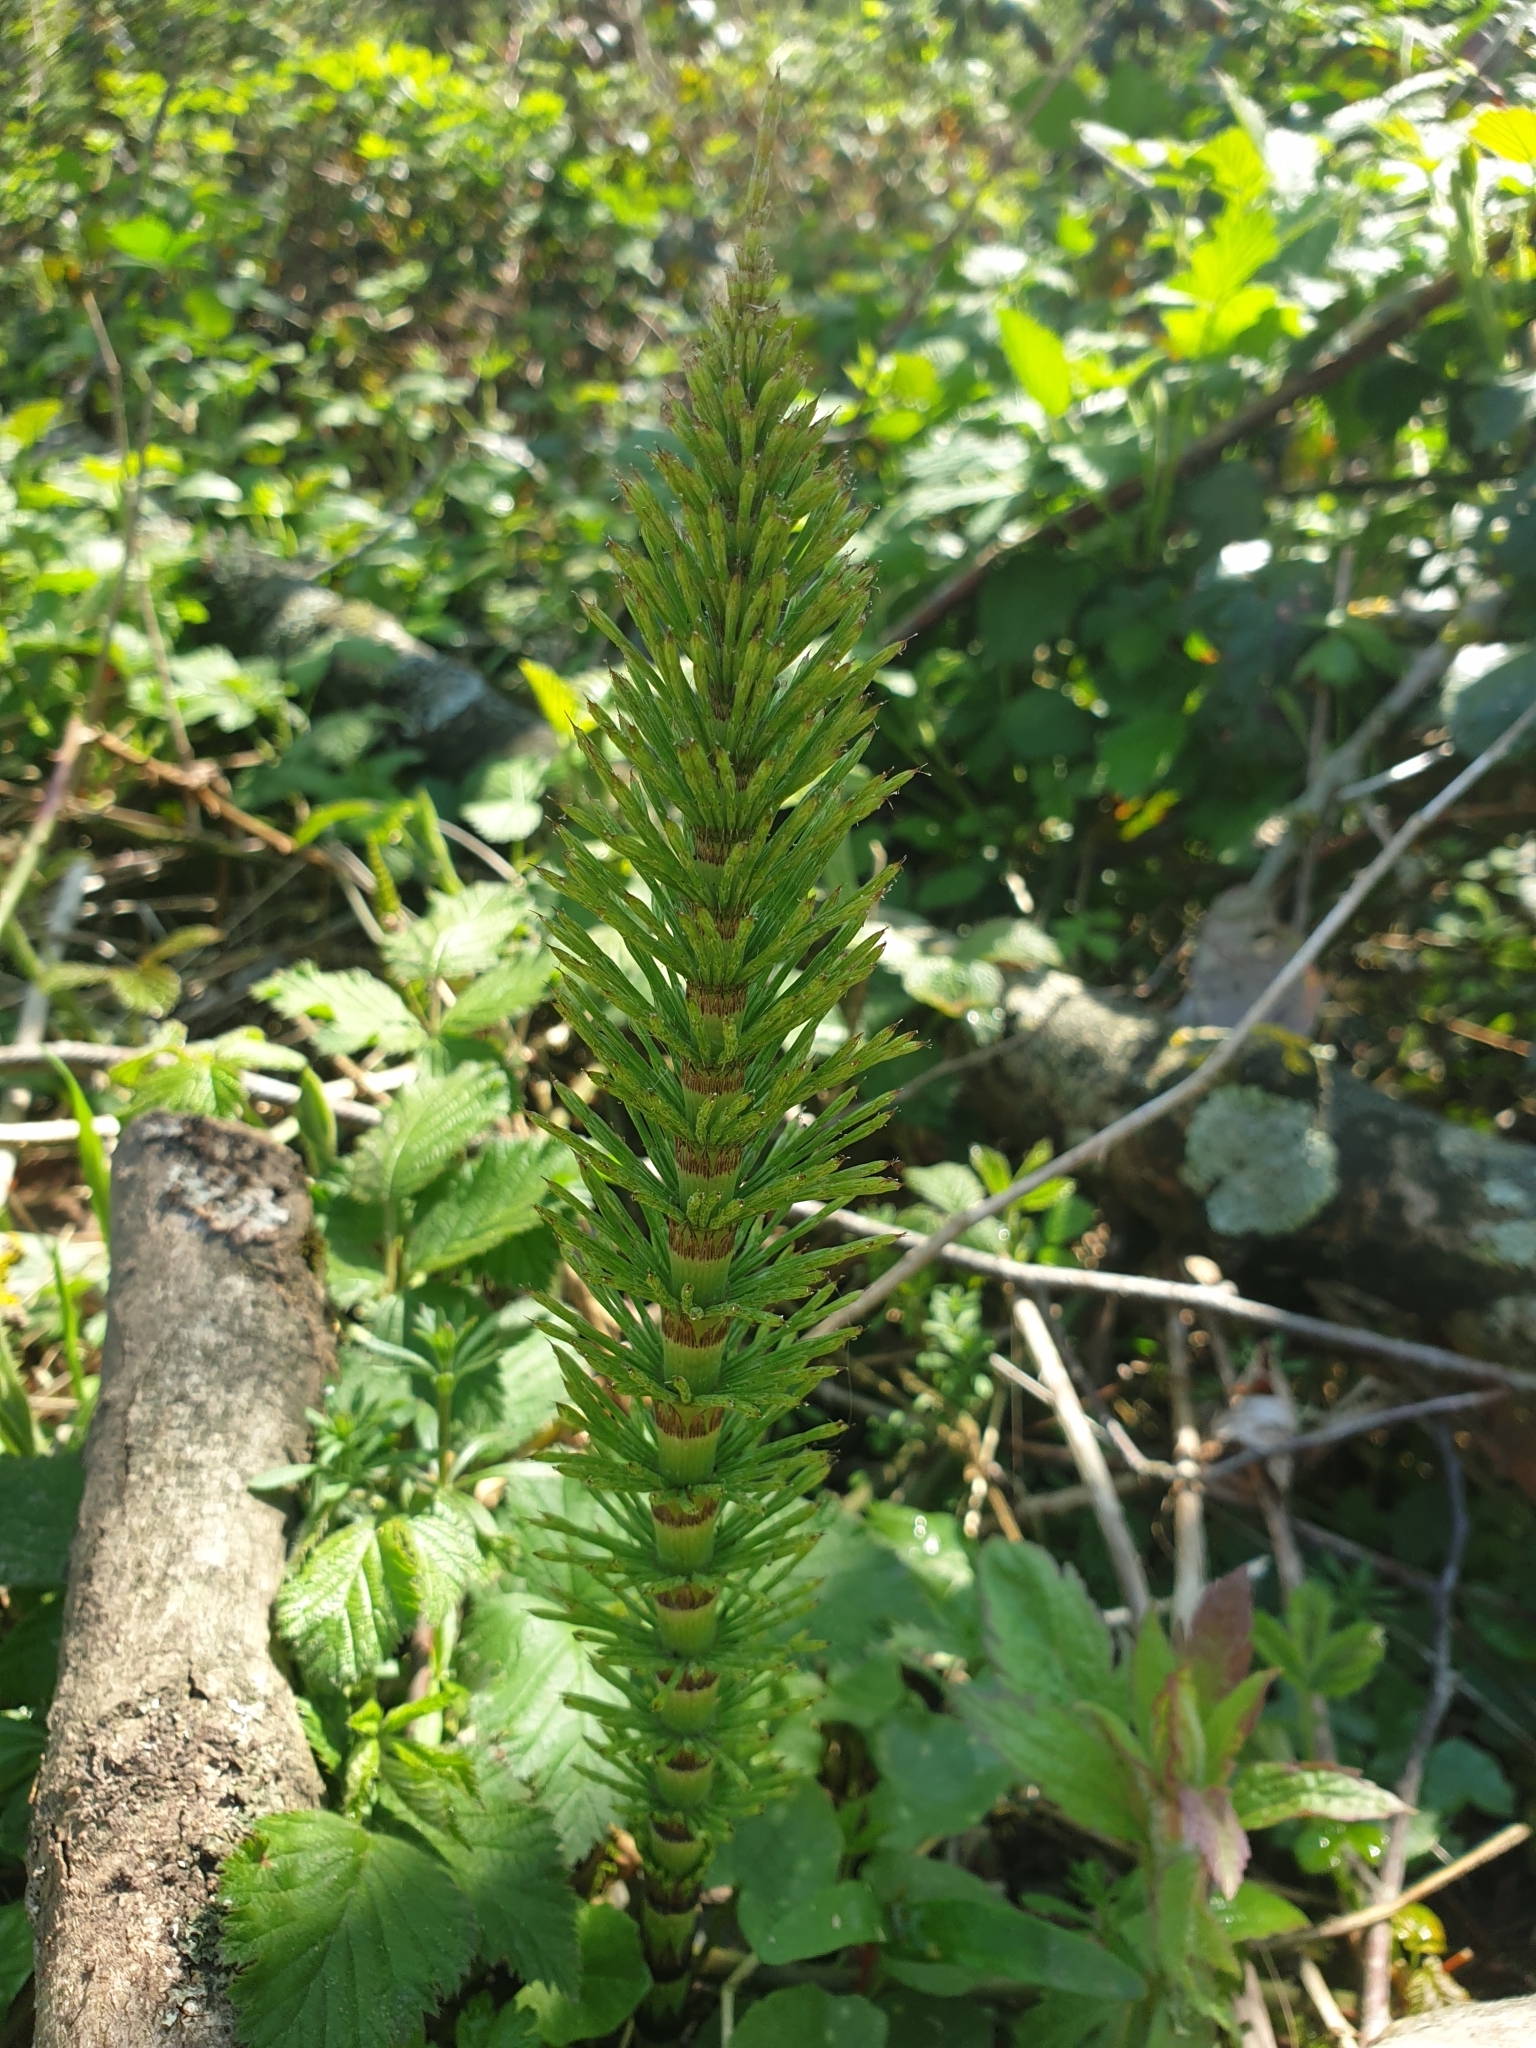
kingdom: Plantae
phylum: Tracheophyta
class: Polypodiopsida
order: Equisetales
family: Equisetaceae
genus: Equisetum
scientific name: Equisetum telmateia
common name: Great horsetail
